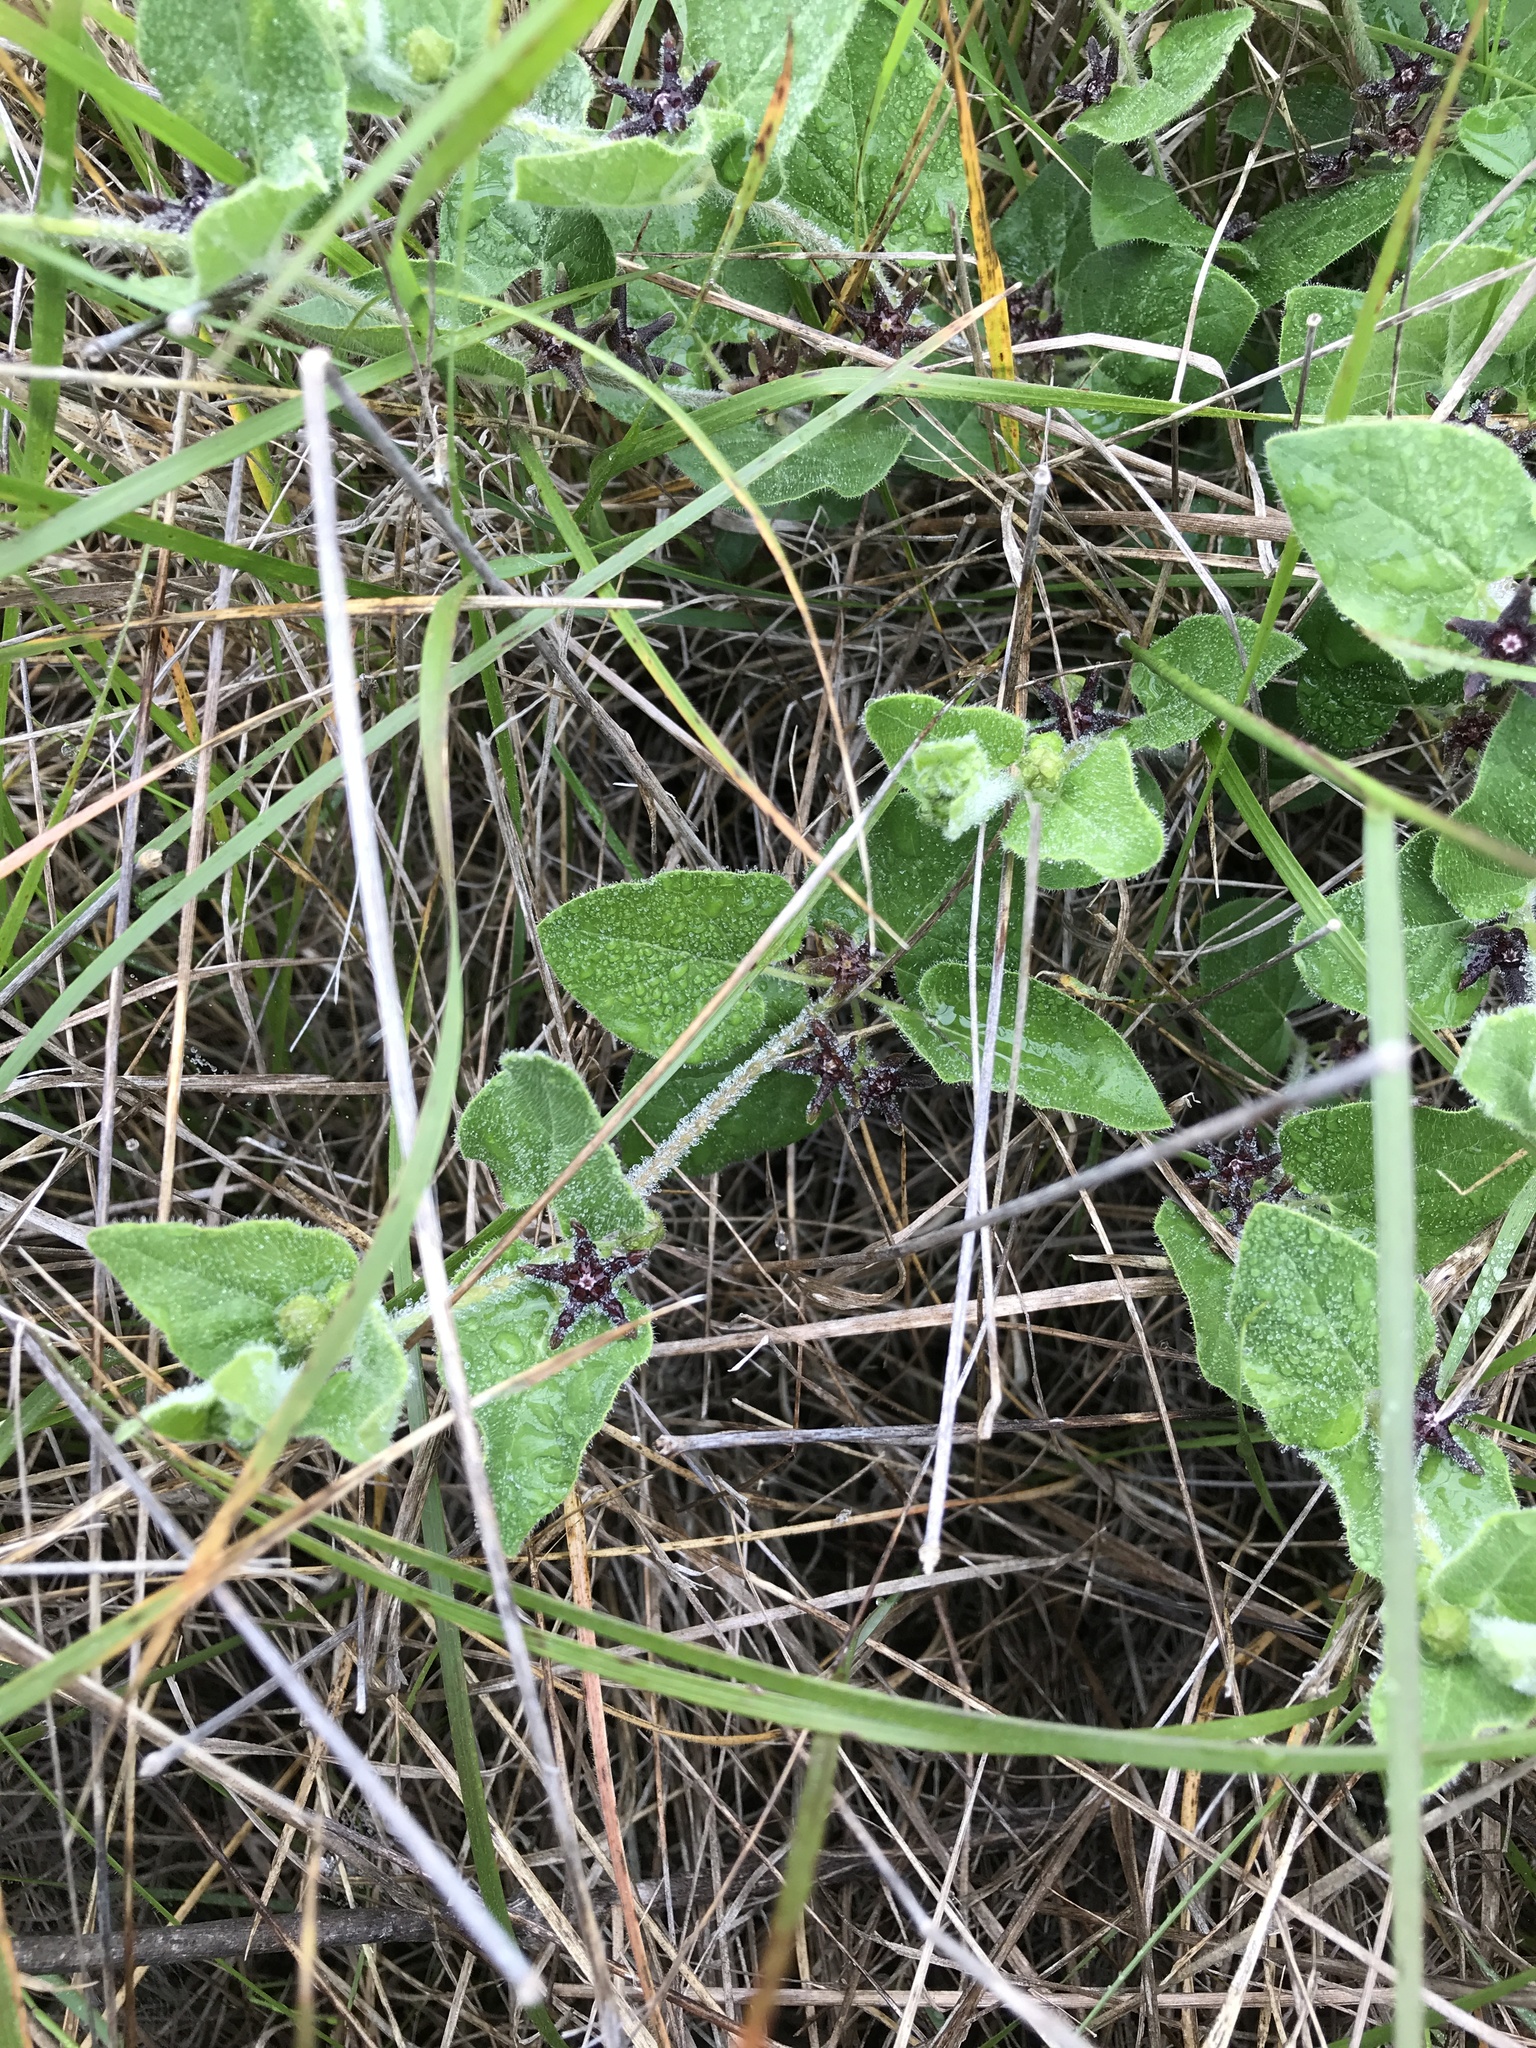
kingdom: Plantae
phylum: Tracheophyta
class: Magnoliopsida
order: Gentianales
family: Apocynaceae
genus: Chthamalia
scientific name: Chthamalia biflora
